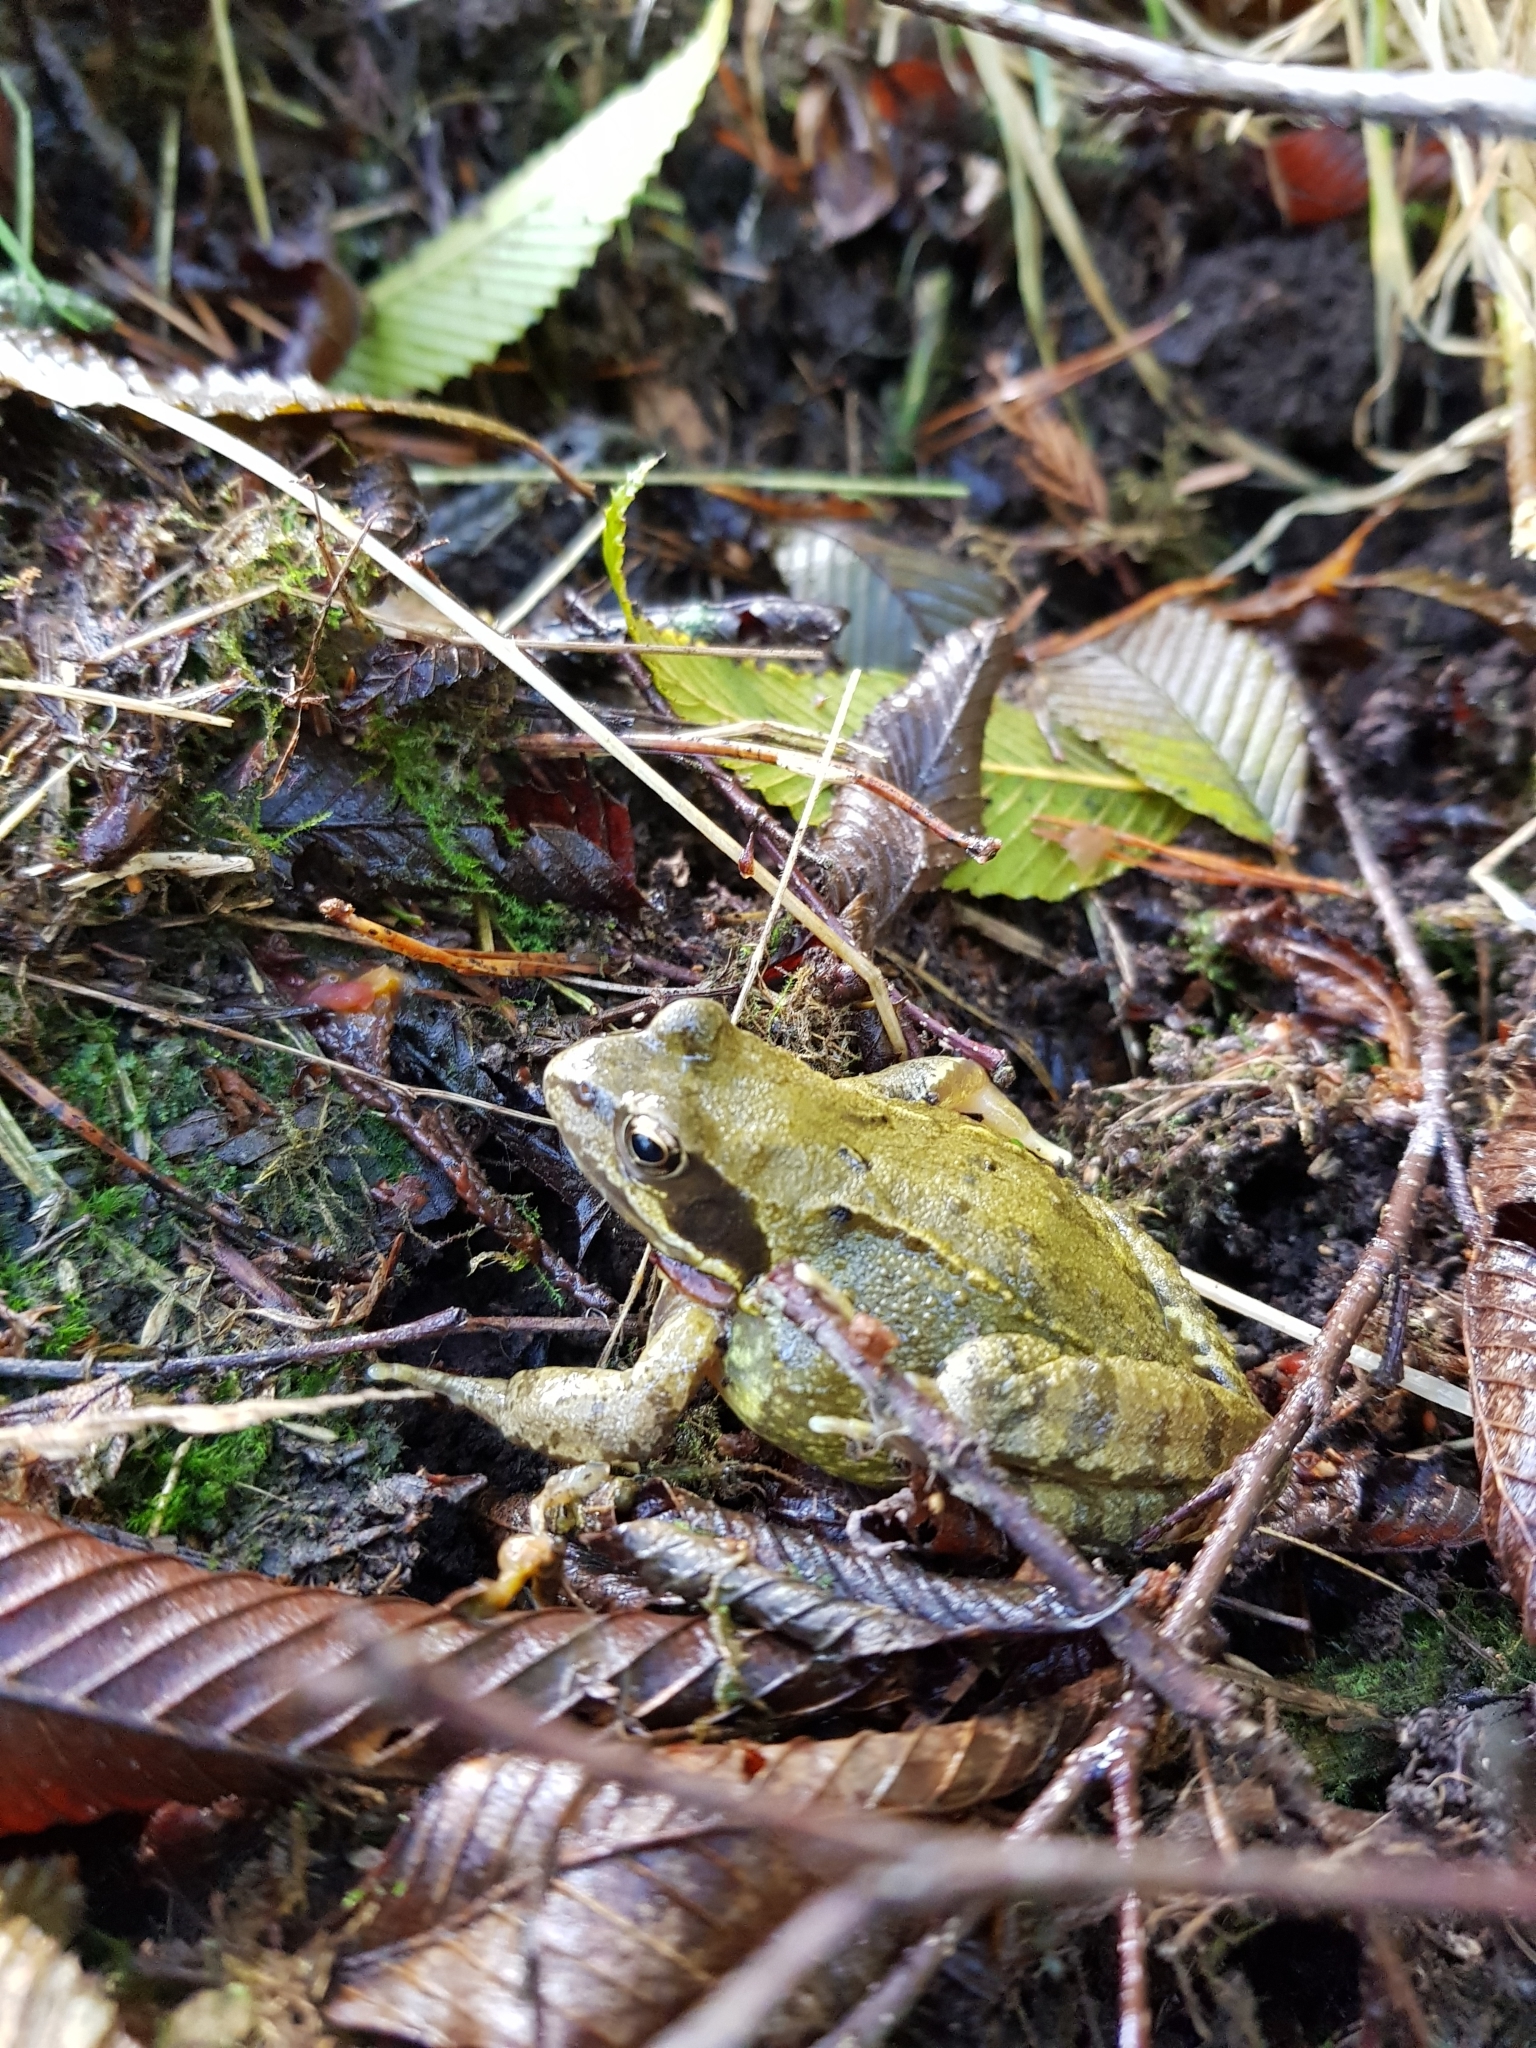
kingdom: Animalia
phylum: Chordata
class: Amphibia
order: Anura
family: Ranidae
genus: Rana
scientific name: Rana temporaria
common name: Common frog
